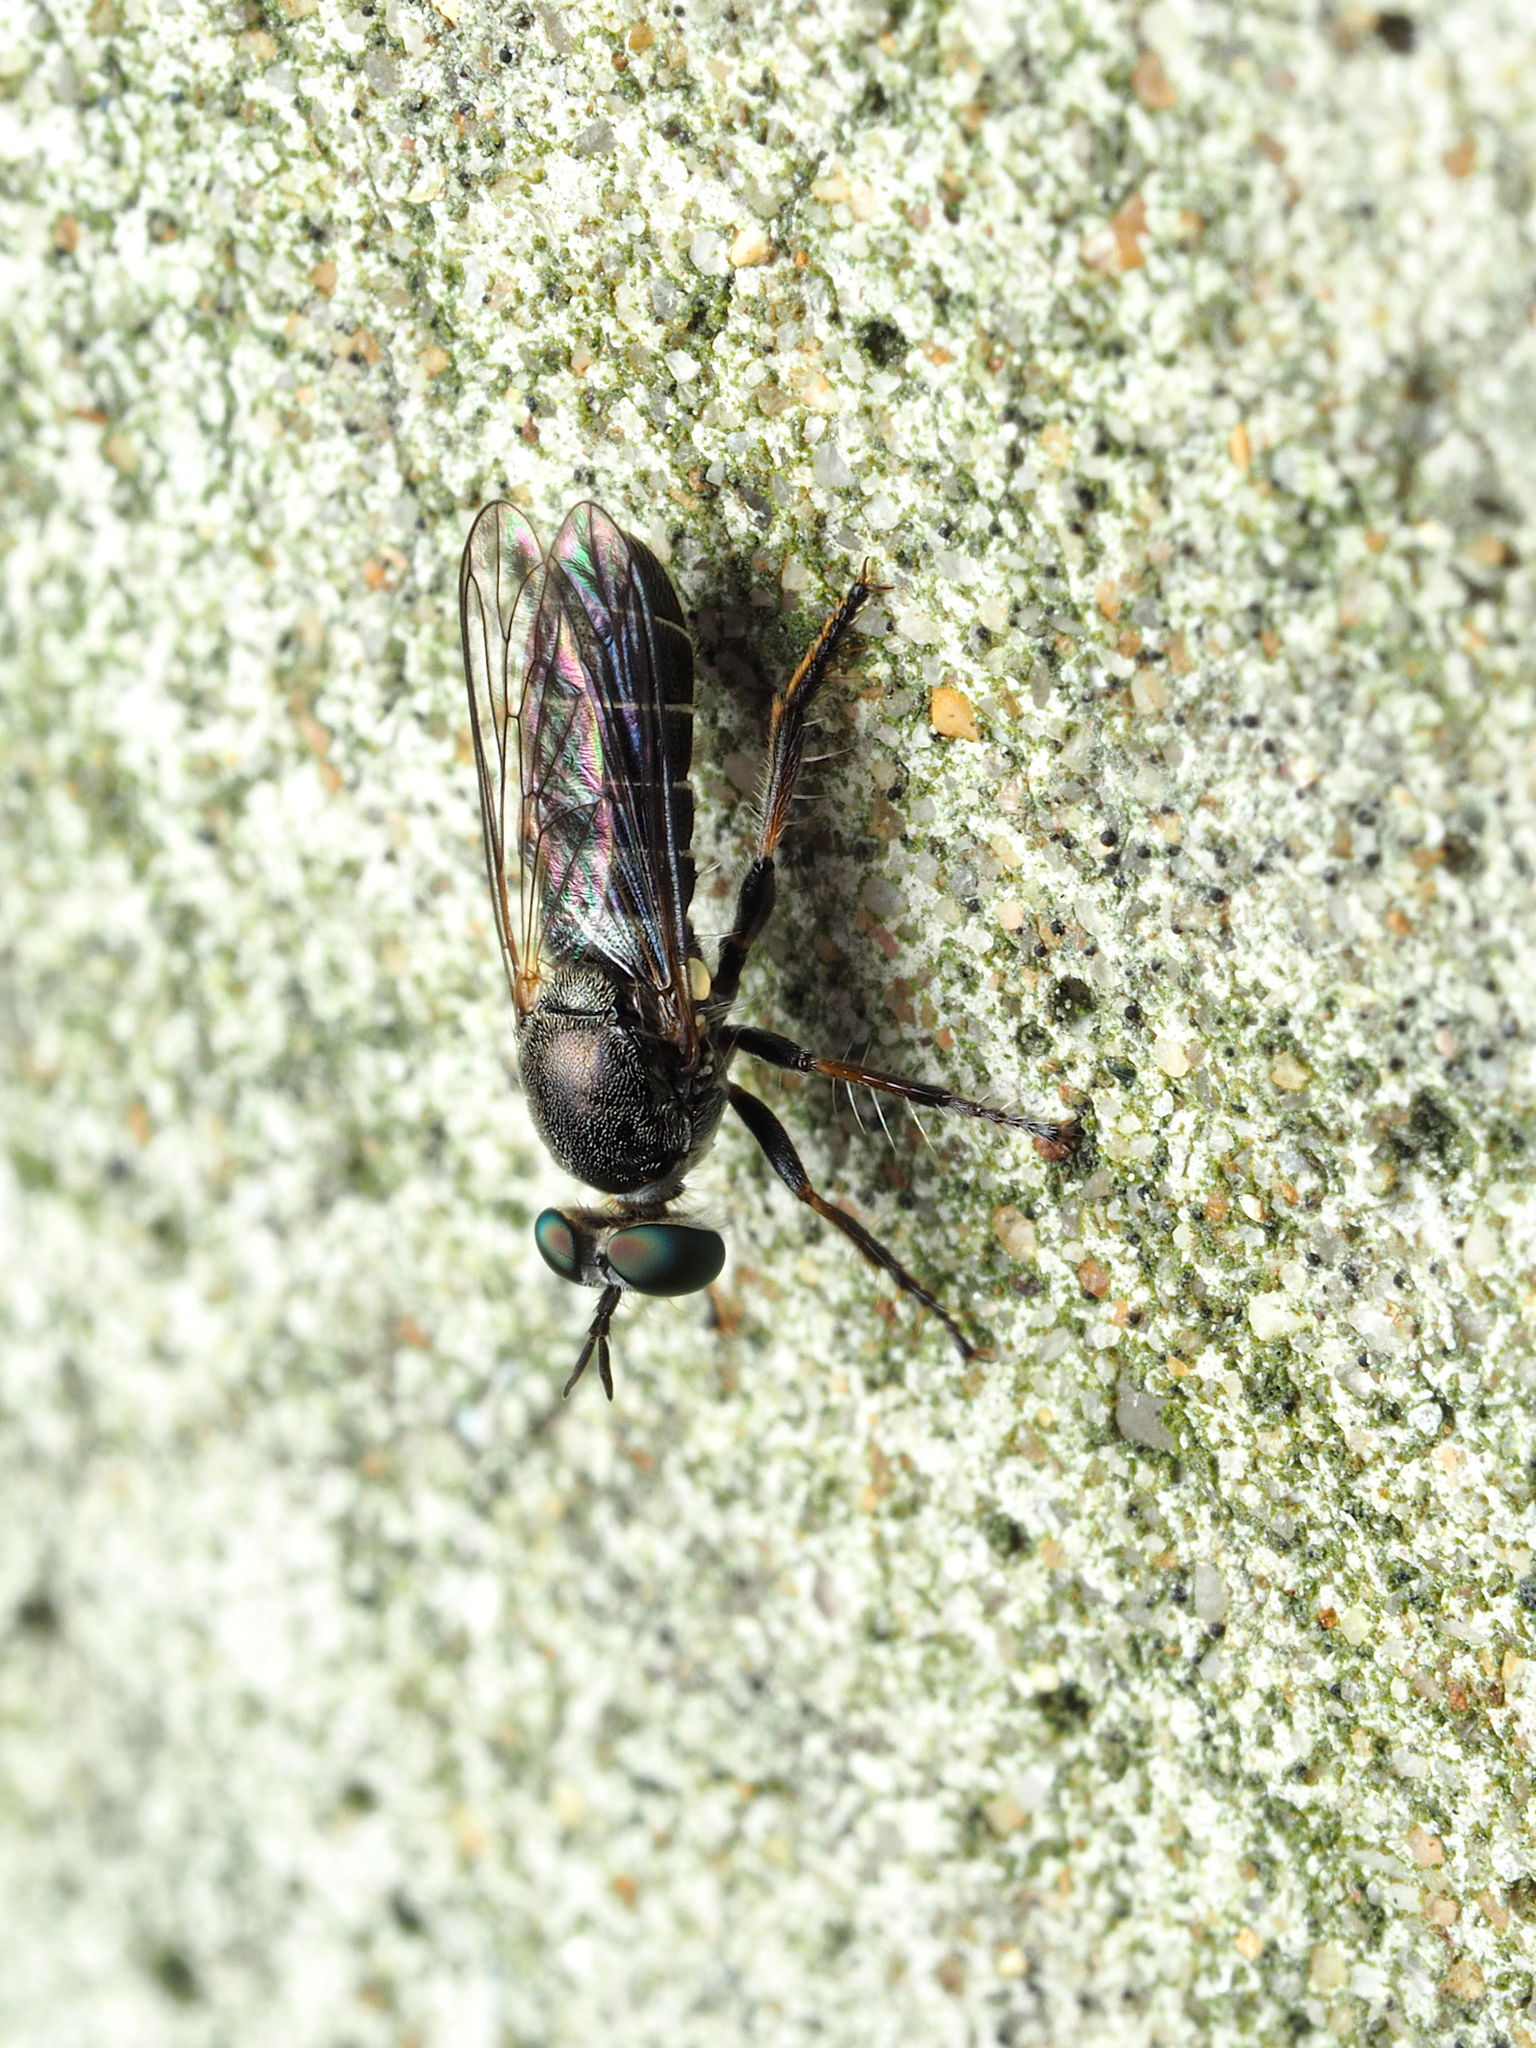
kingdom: Animalia
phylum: Arthropoda
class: Insecta
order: Diptera
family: Asilidae
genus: Atomosia
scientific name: Atomosia puella
